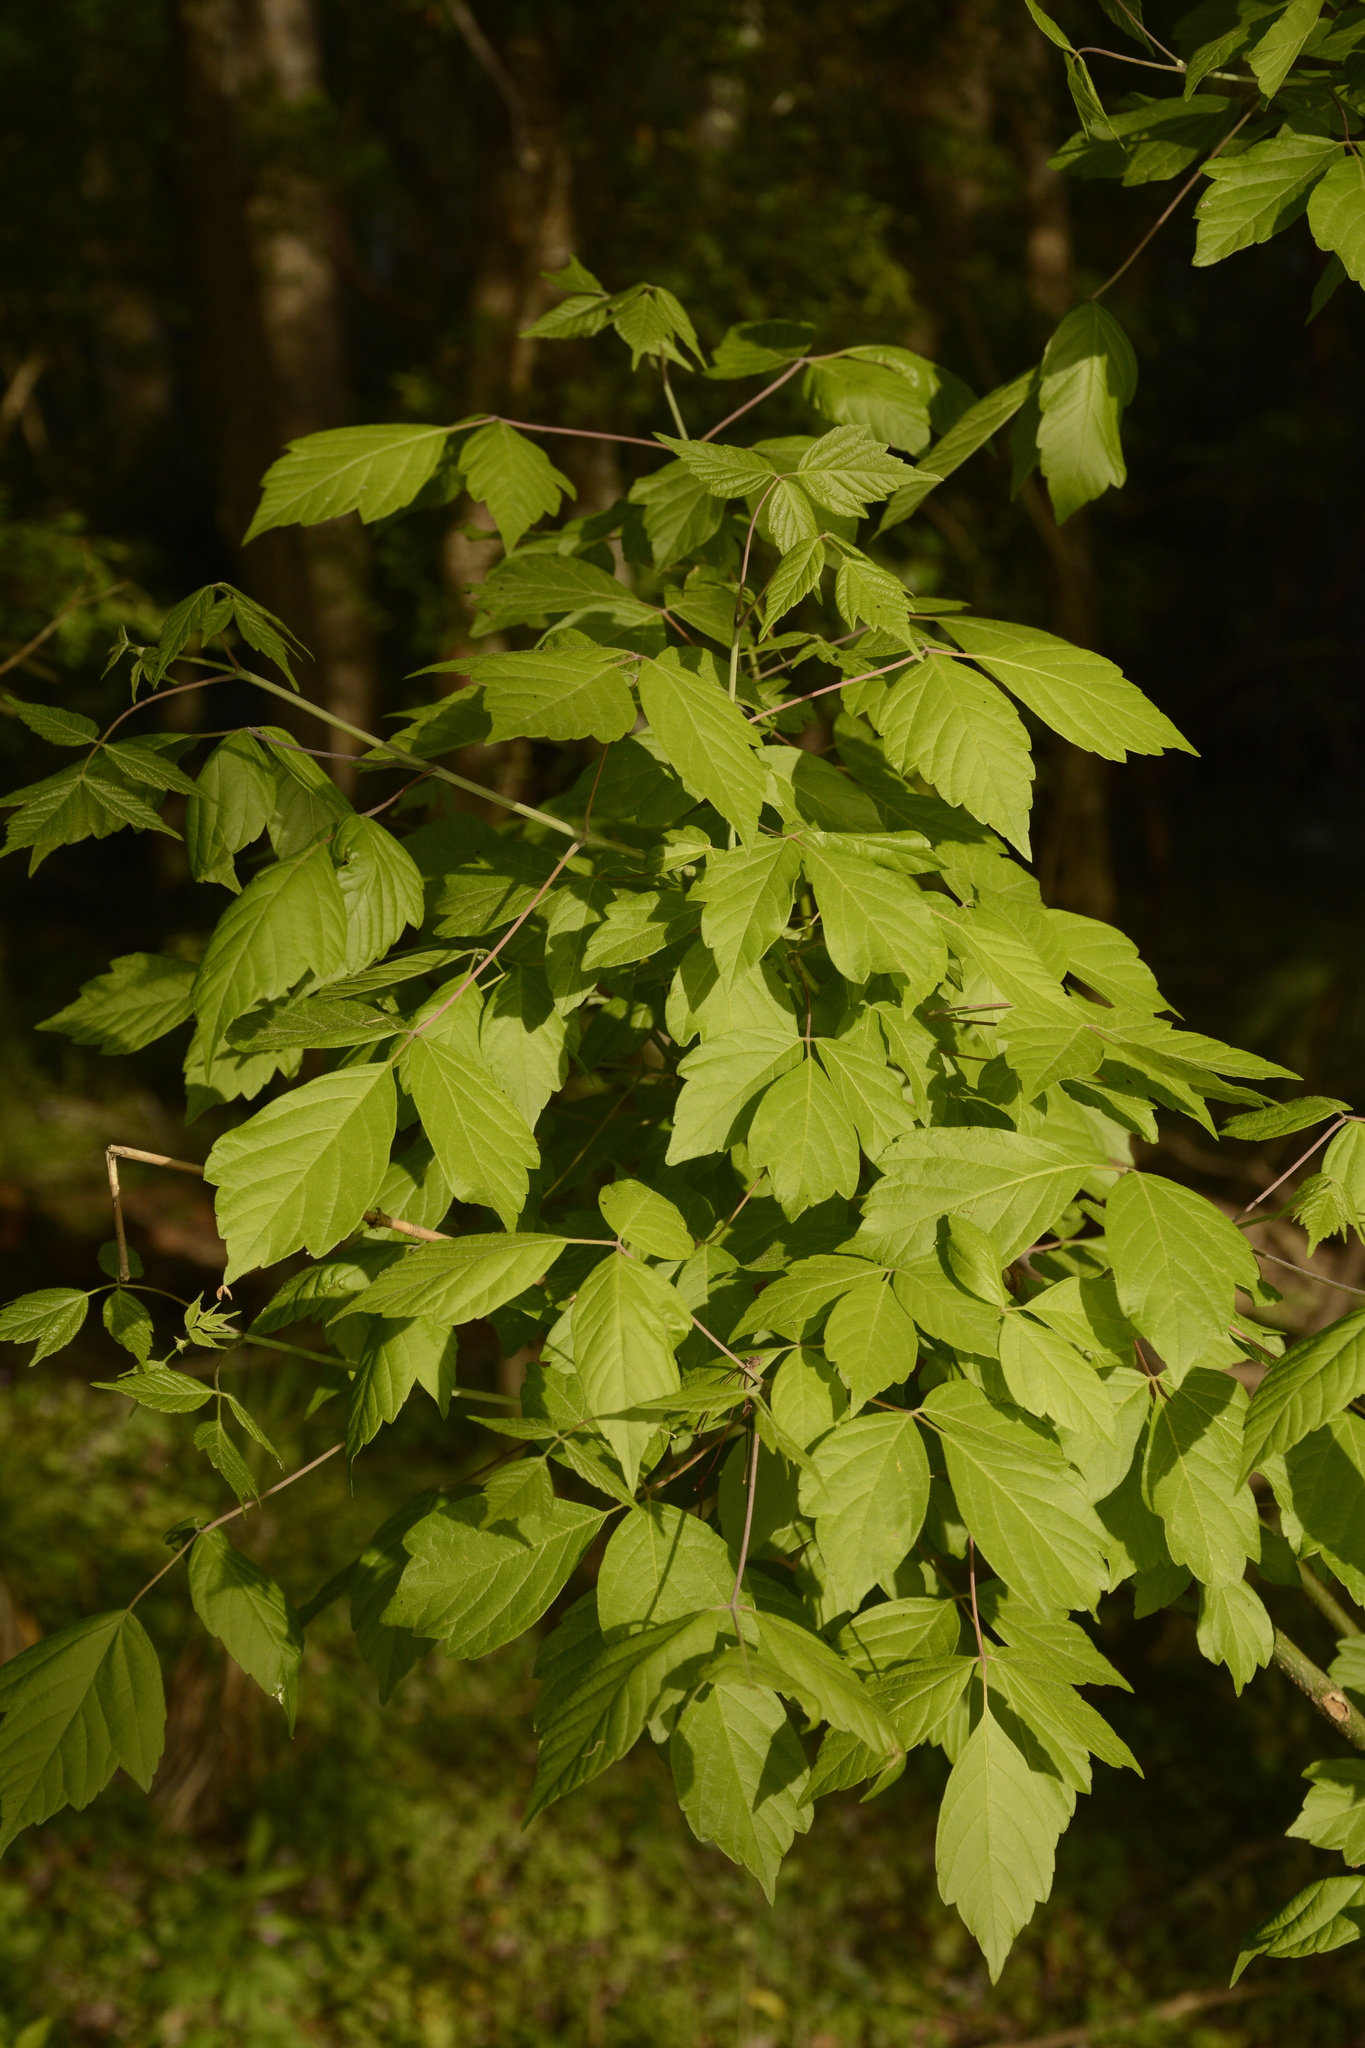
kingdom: Plantae
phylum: Tracheophyta
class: Magnoliopsida
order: Sapindales
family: Sapindaceae
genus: Acer
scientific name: Acer negundo
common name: Ashleaf maple
